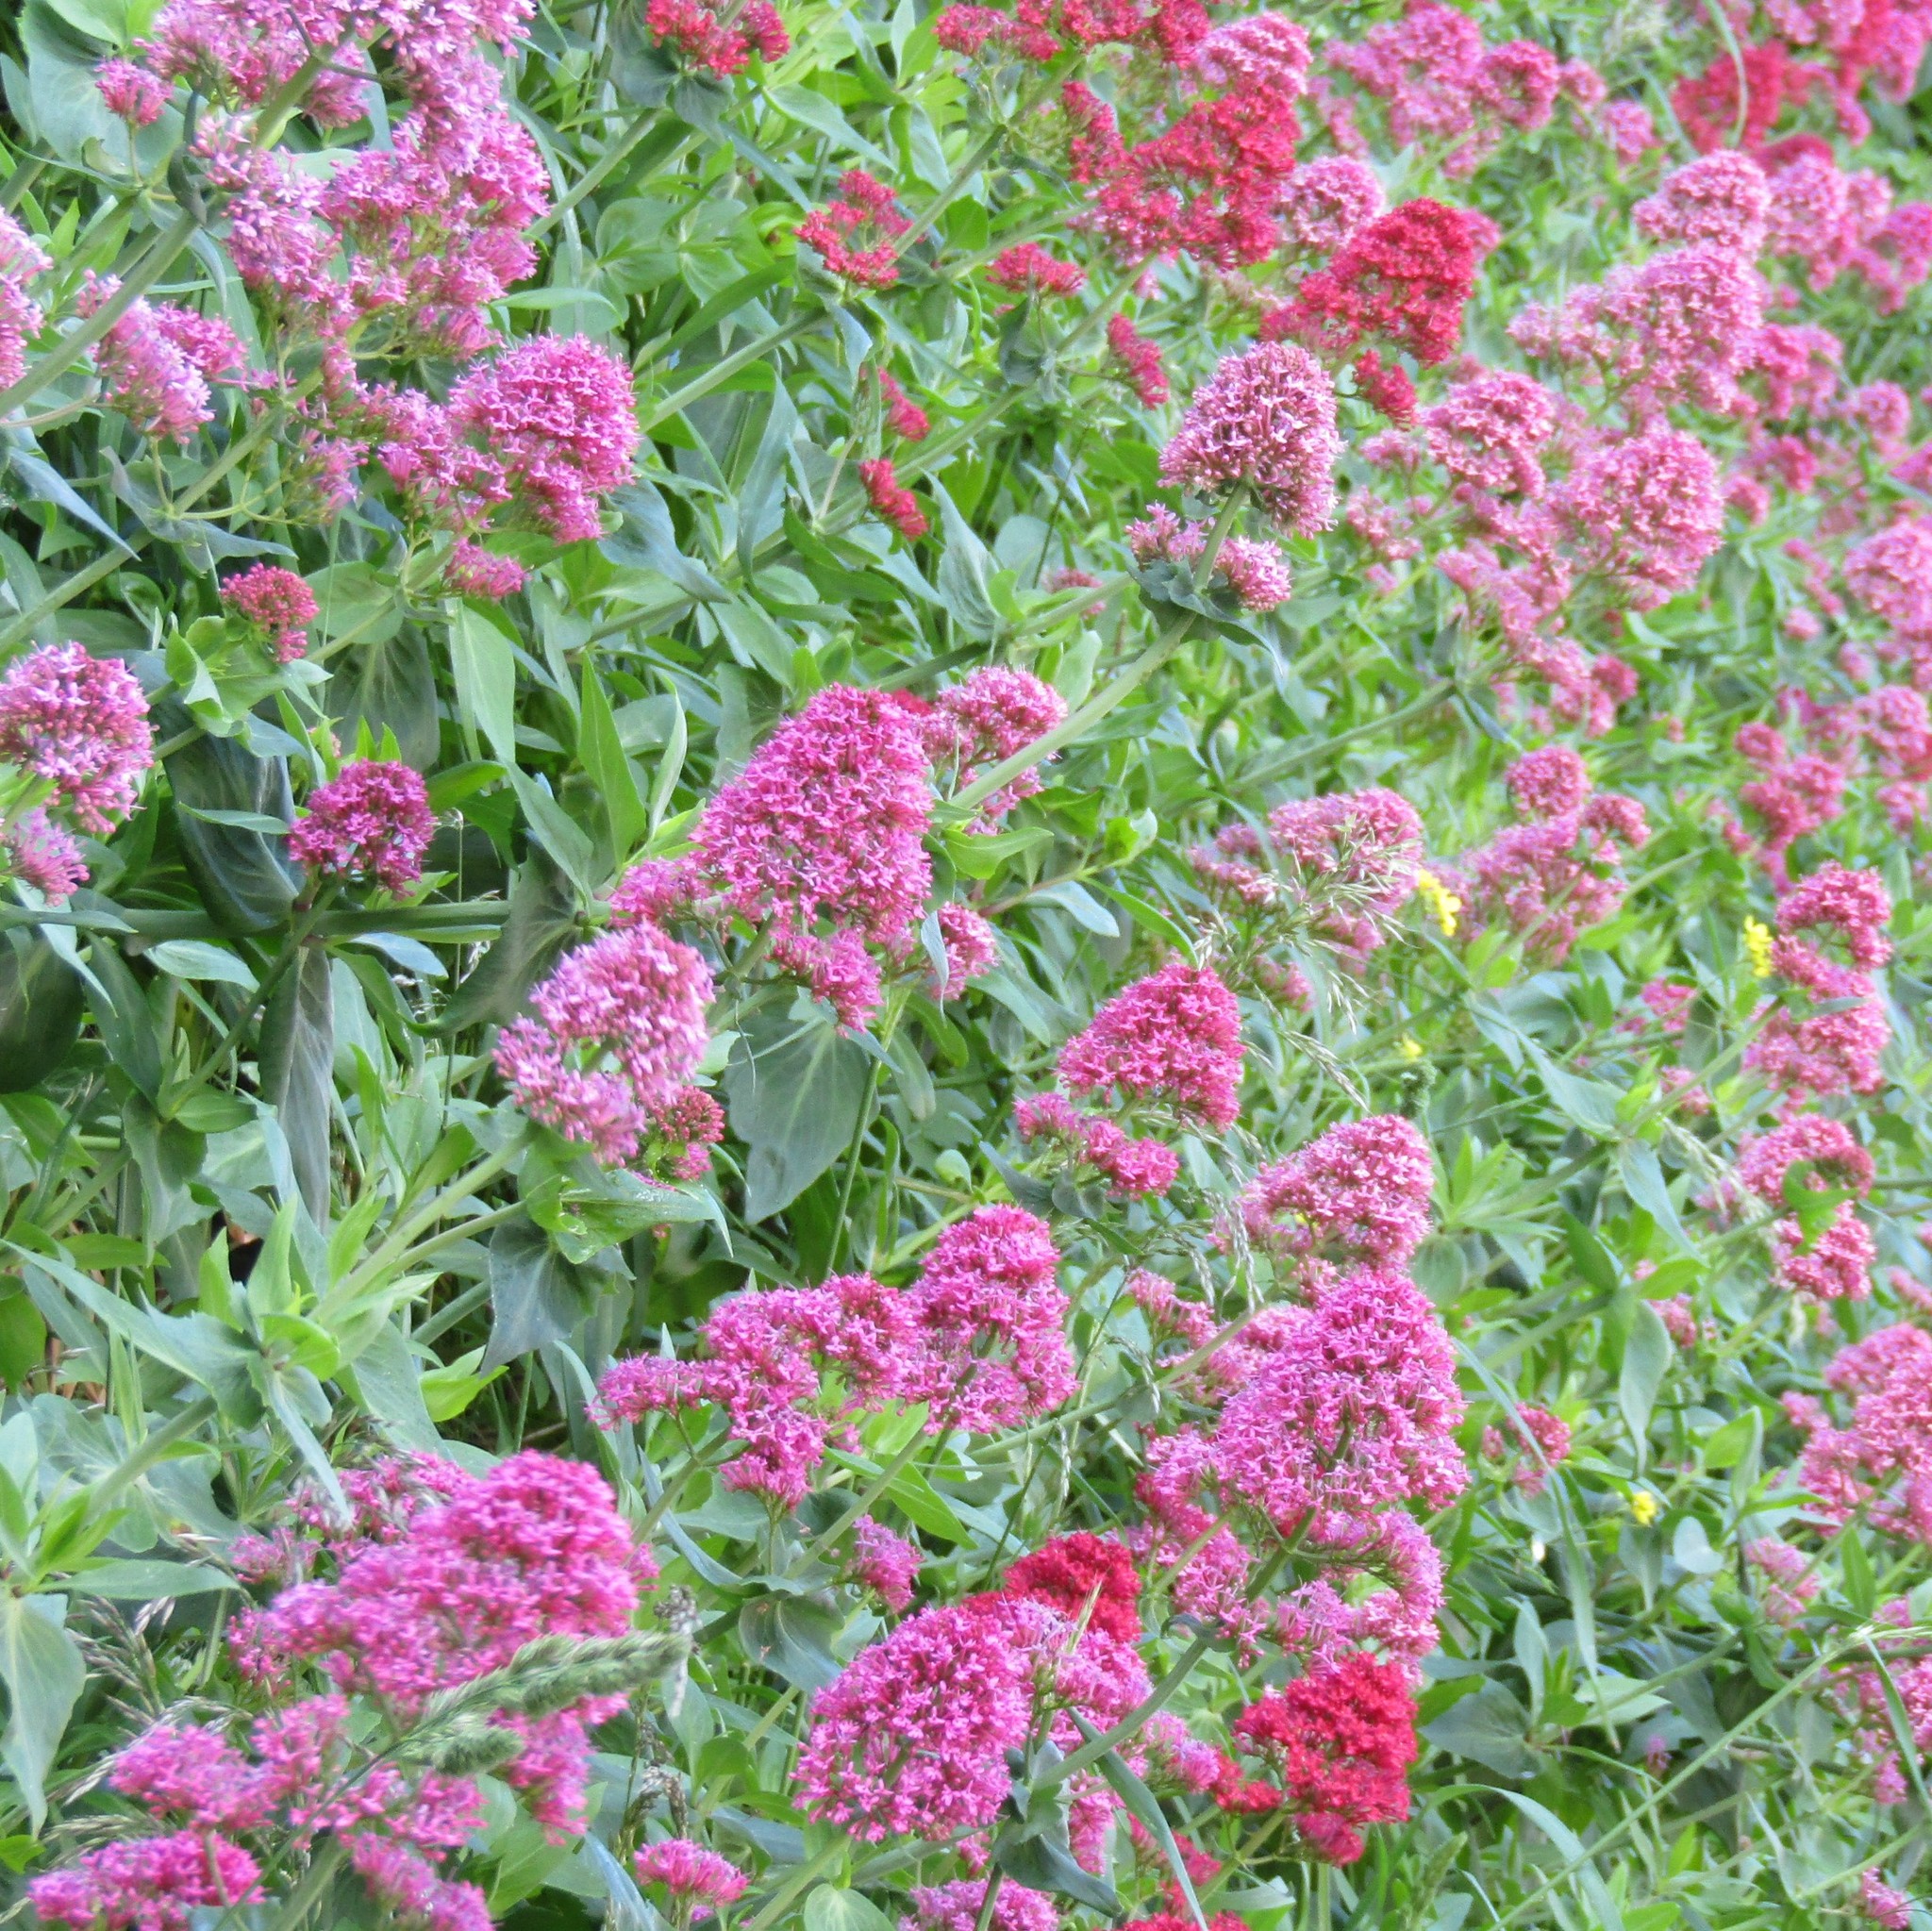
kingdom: Plantae
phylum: Tracheophyta
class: Magnoliopsida
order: Dipsacales
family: Caprifoliaceae
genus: Centranthus
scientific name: Centranthus ruber
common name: Red valerian
